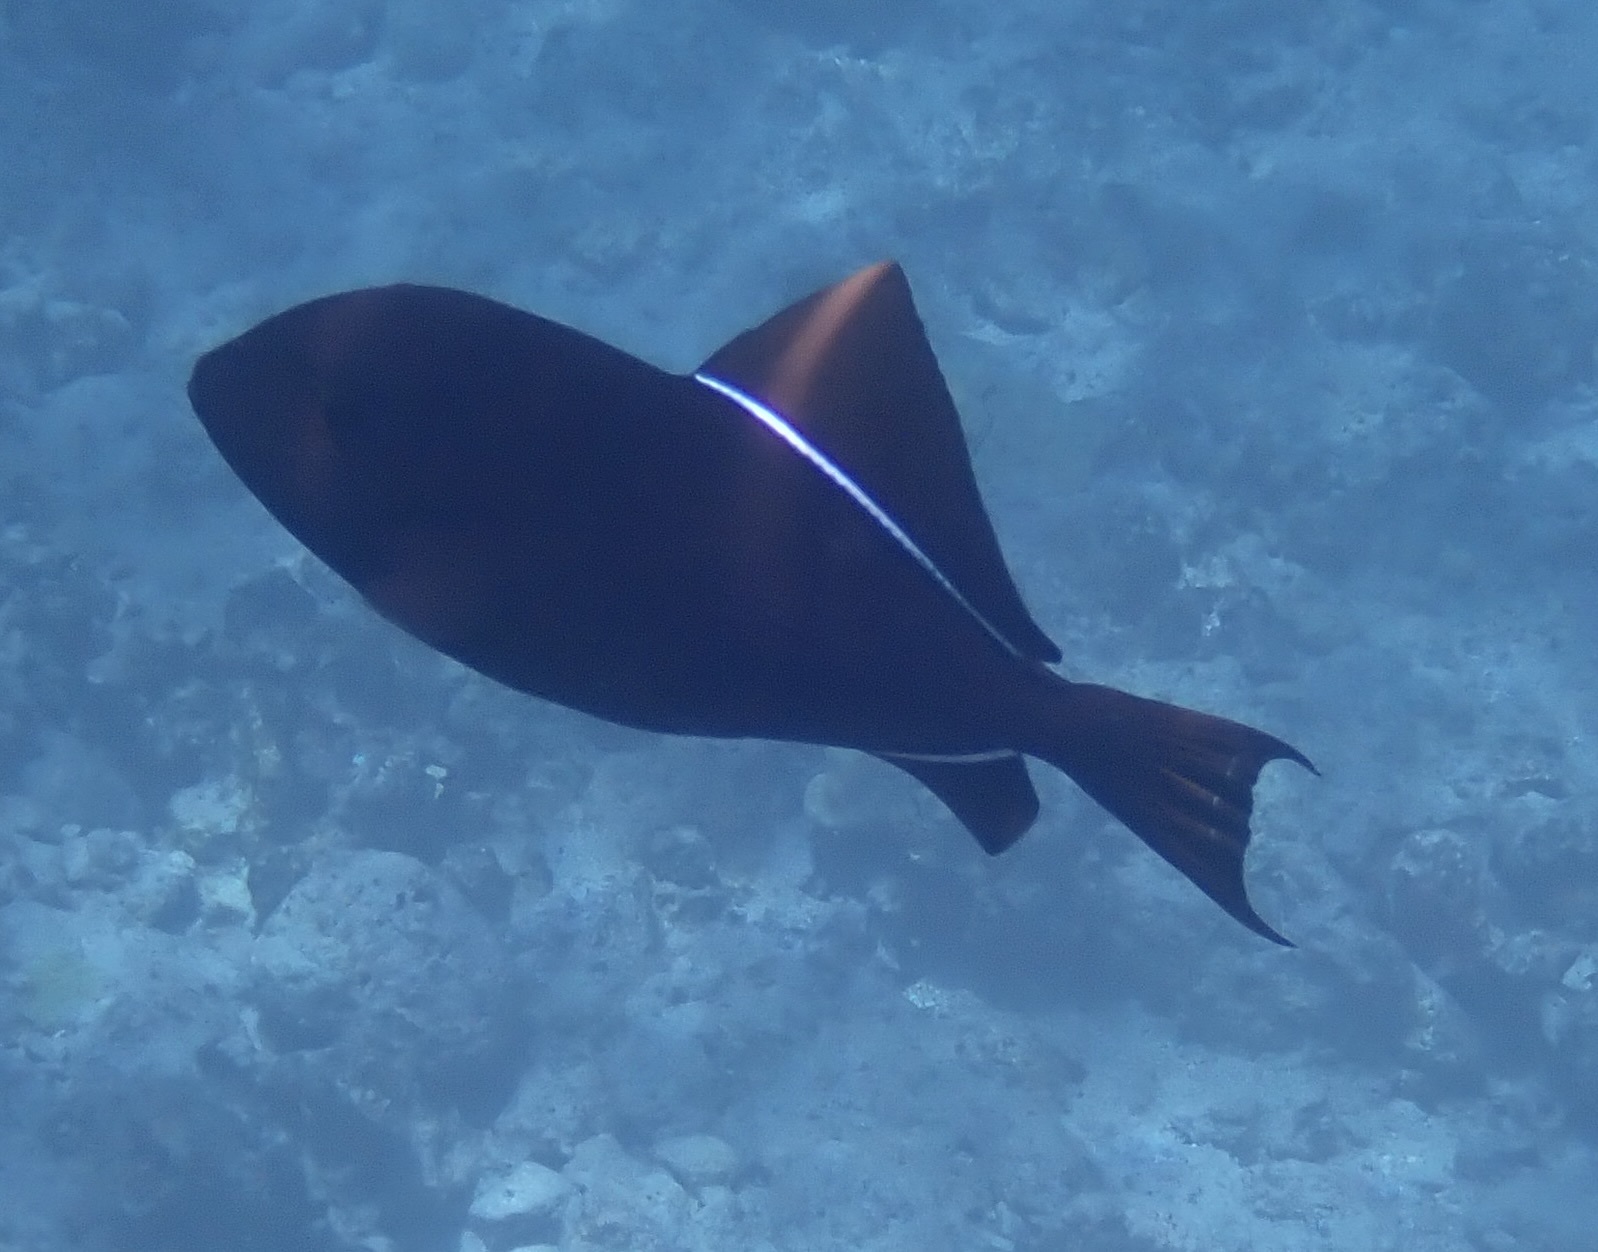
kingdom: Animalia
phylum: Chordata
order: Tetraodontiformes
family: Balistidae
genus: Melichthys
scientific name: Melichthys niger
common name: Black durgon
